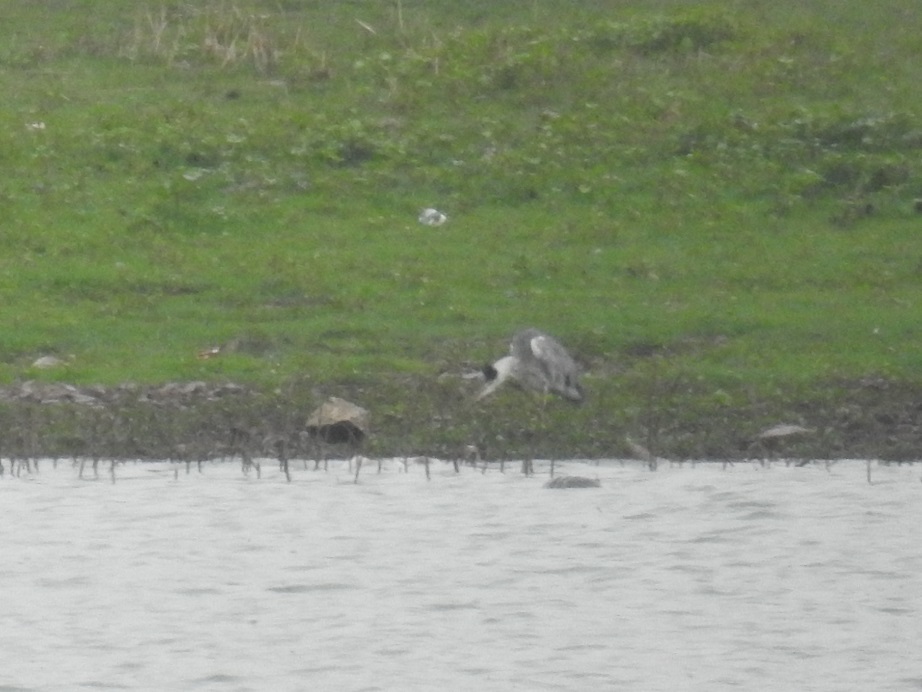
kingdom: Animalia
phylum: Chordata
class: Aves
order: Pelecaniformes
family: Ardeidae
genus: Ardea
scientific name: Ardea cinerea
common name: Grey heron
